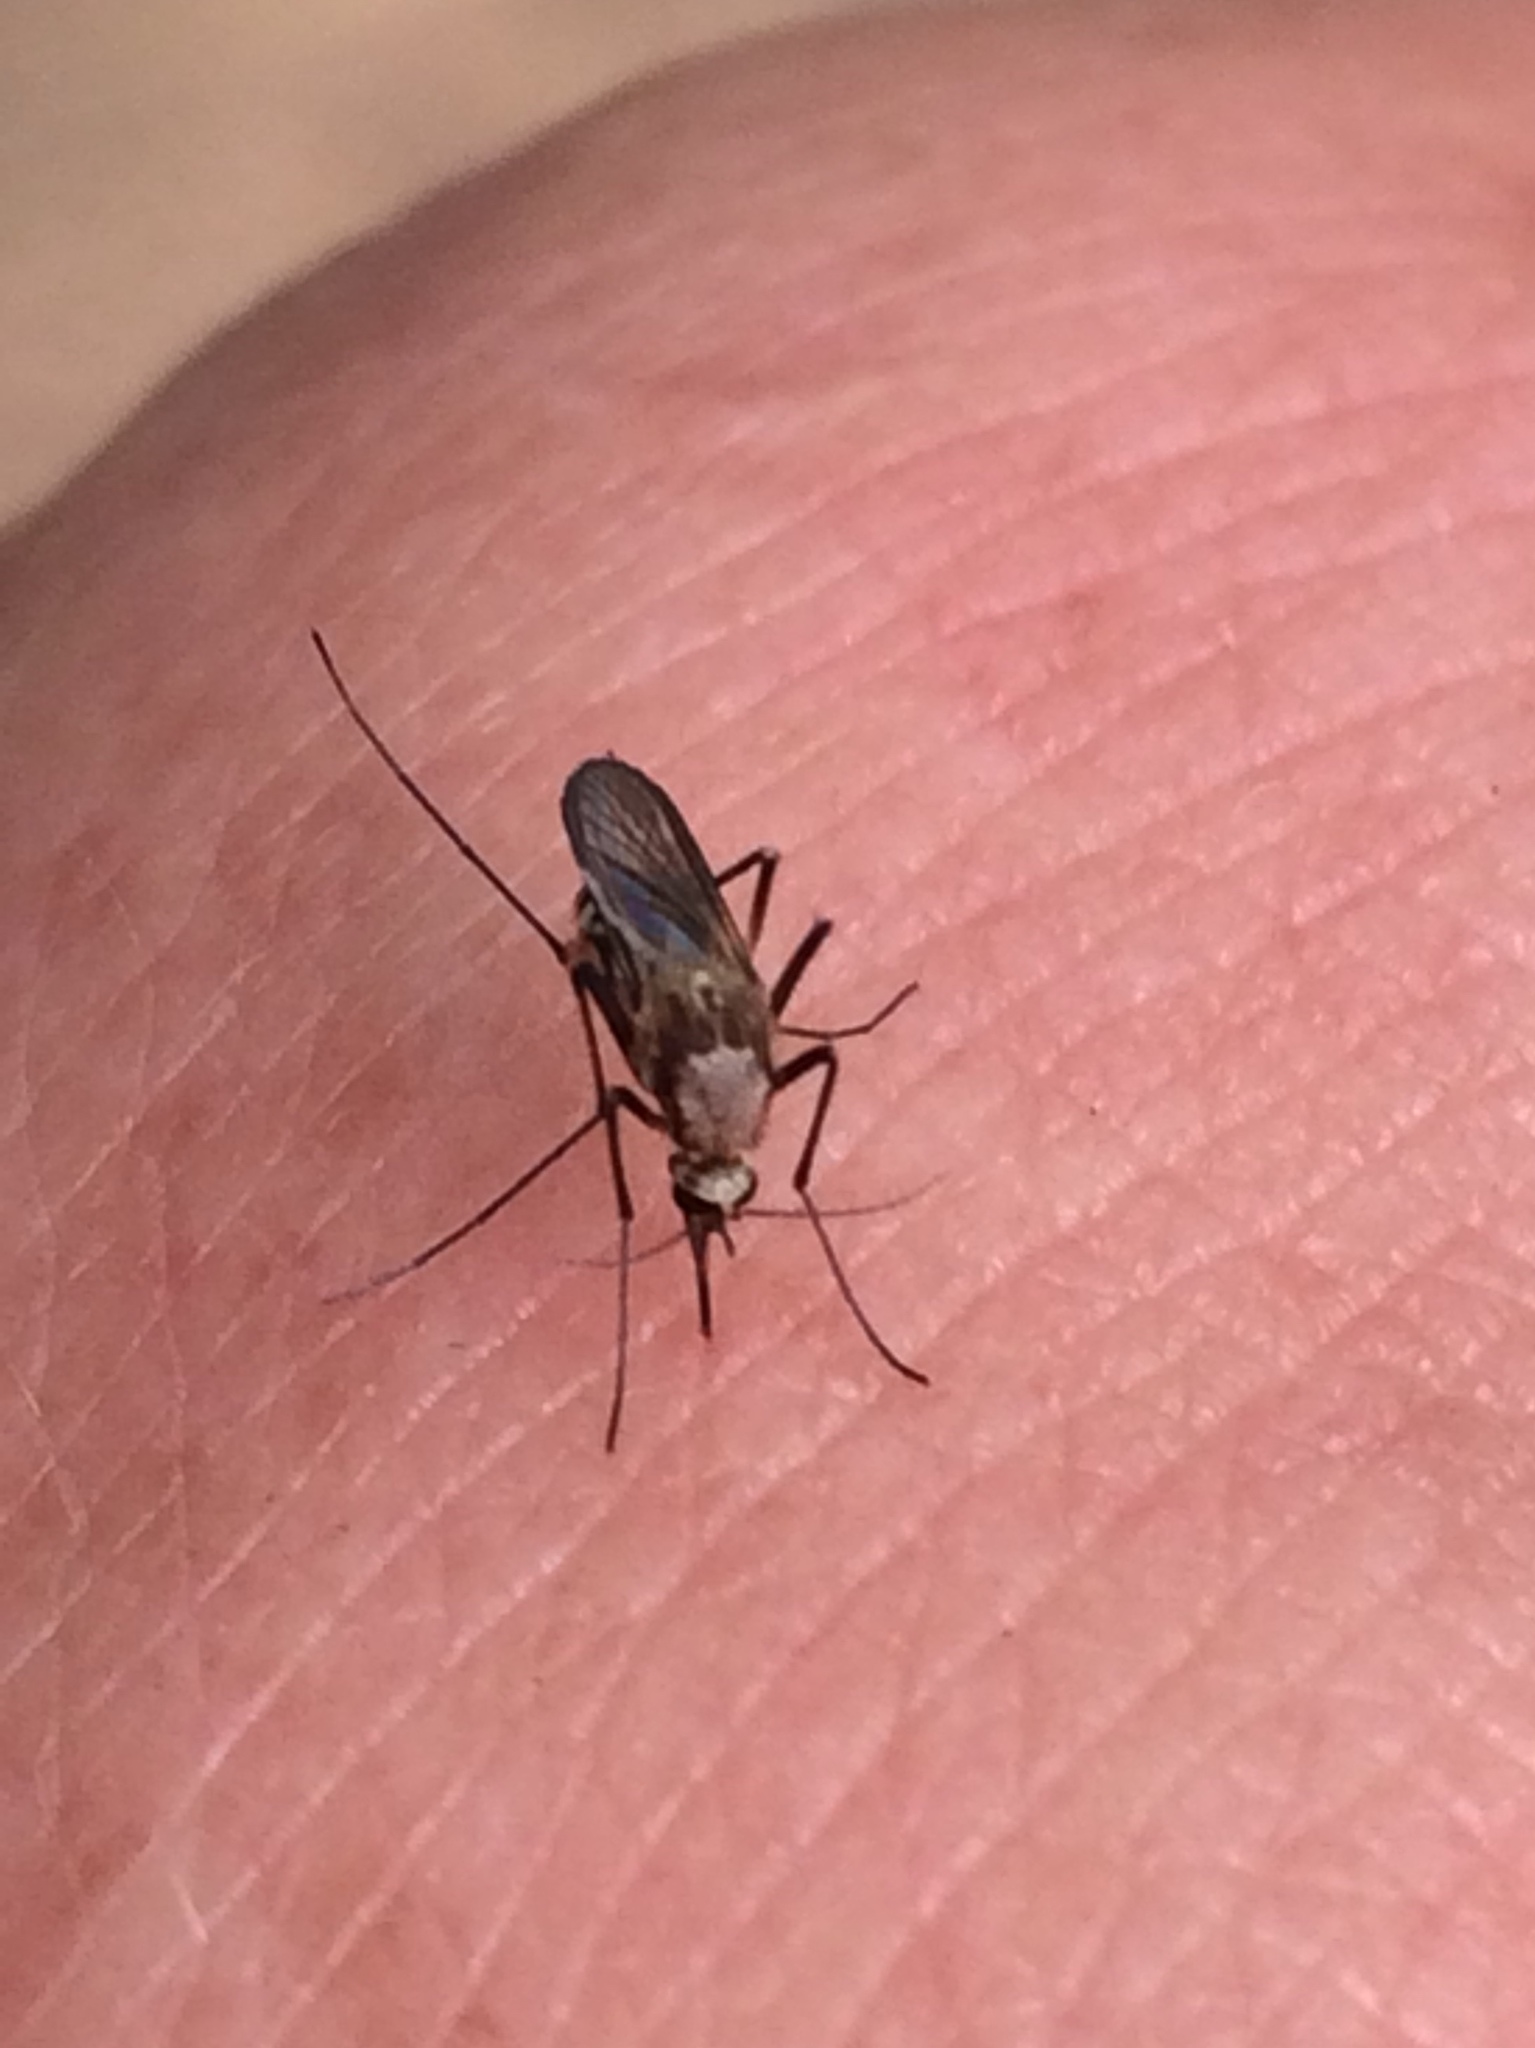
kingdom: Animalia
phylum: Arthropoda
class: Insecta
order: Diptera
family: Culicidae
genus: Aedes
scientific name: Aedes scapularis
